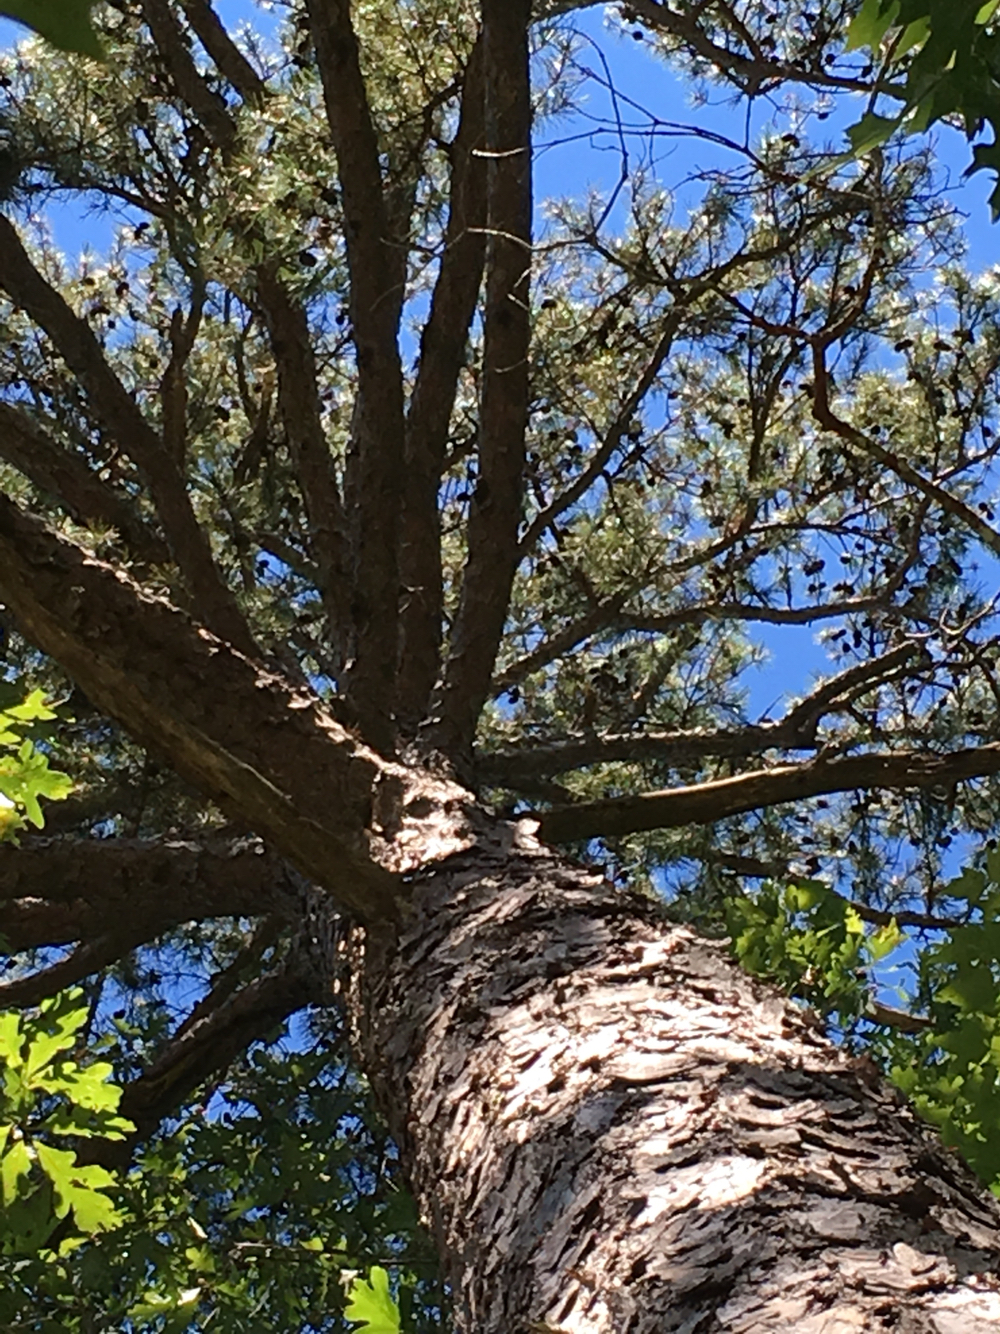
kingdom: Plantae
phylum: Tracheophyta
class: Pinopsida
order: Pinales
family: Pinaceae
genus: Pinus
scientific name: Pinus echinata
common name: Shortleaf pine
